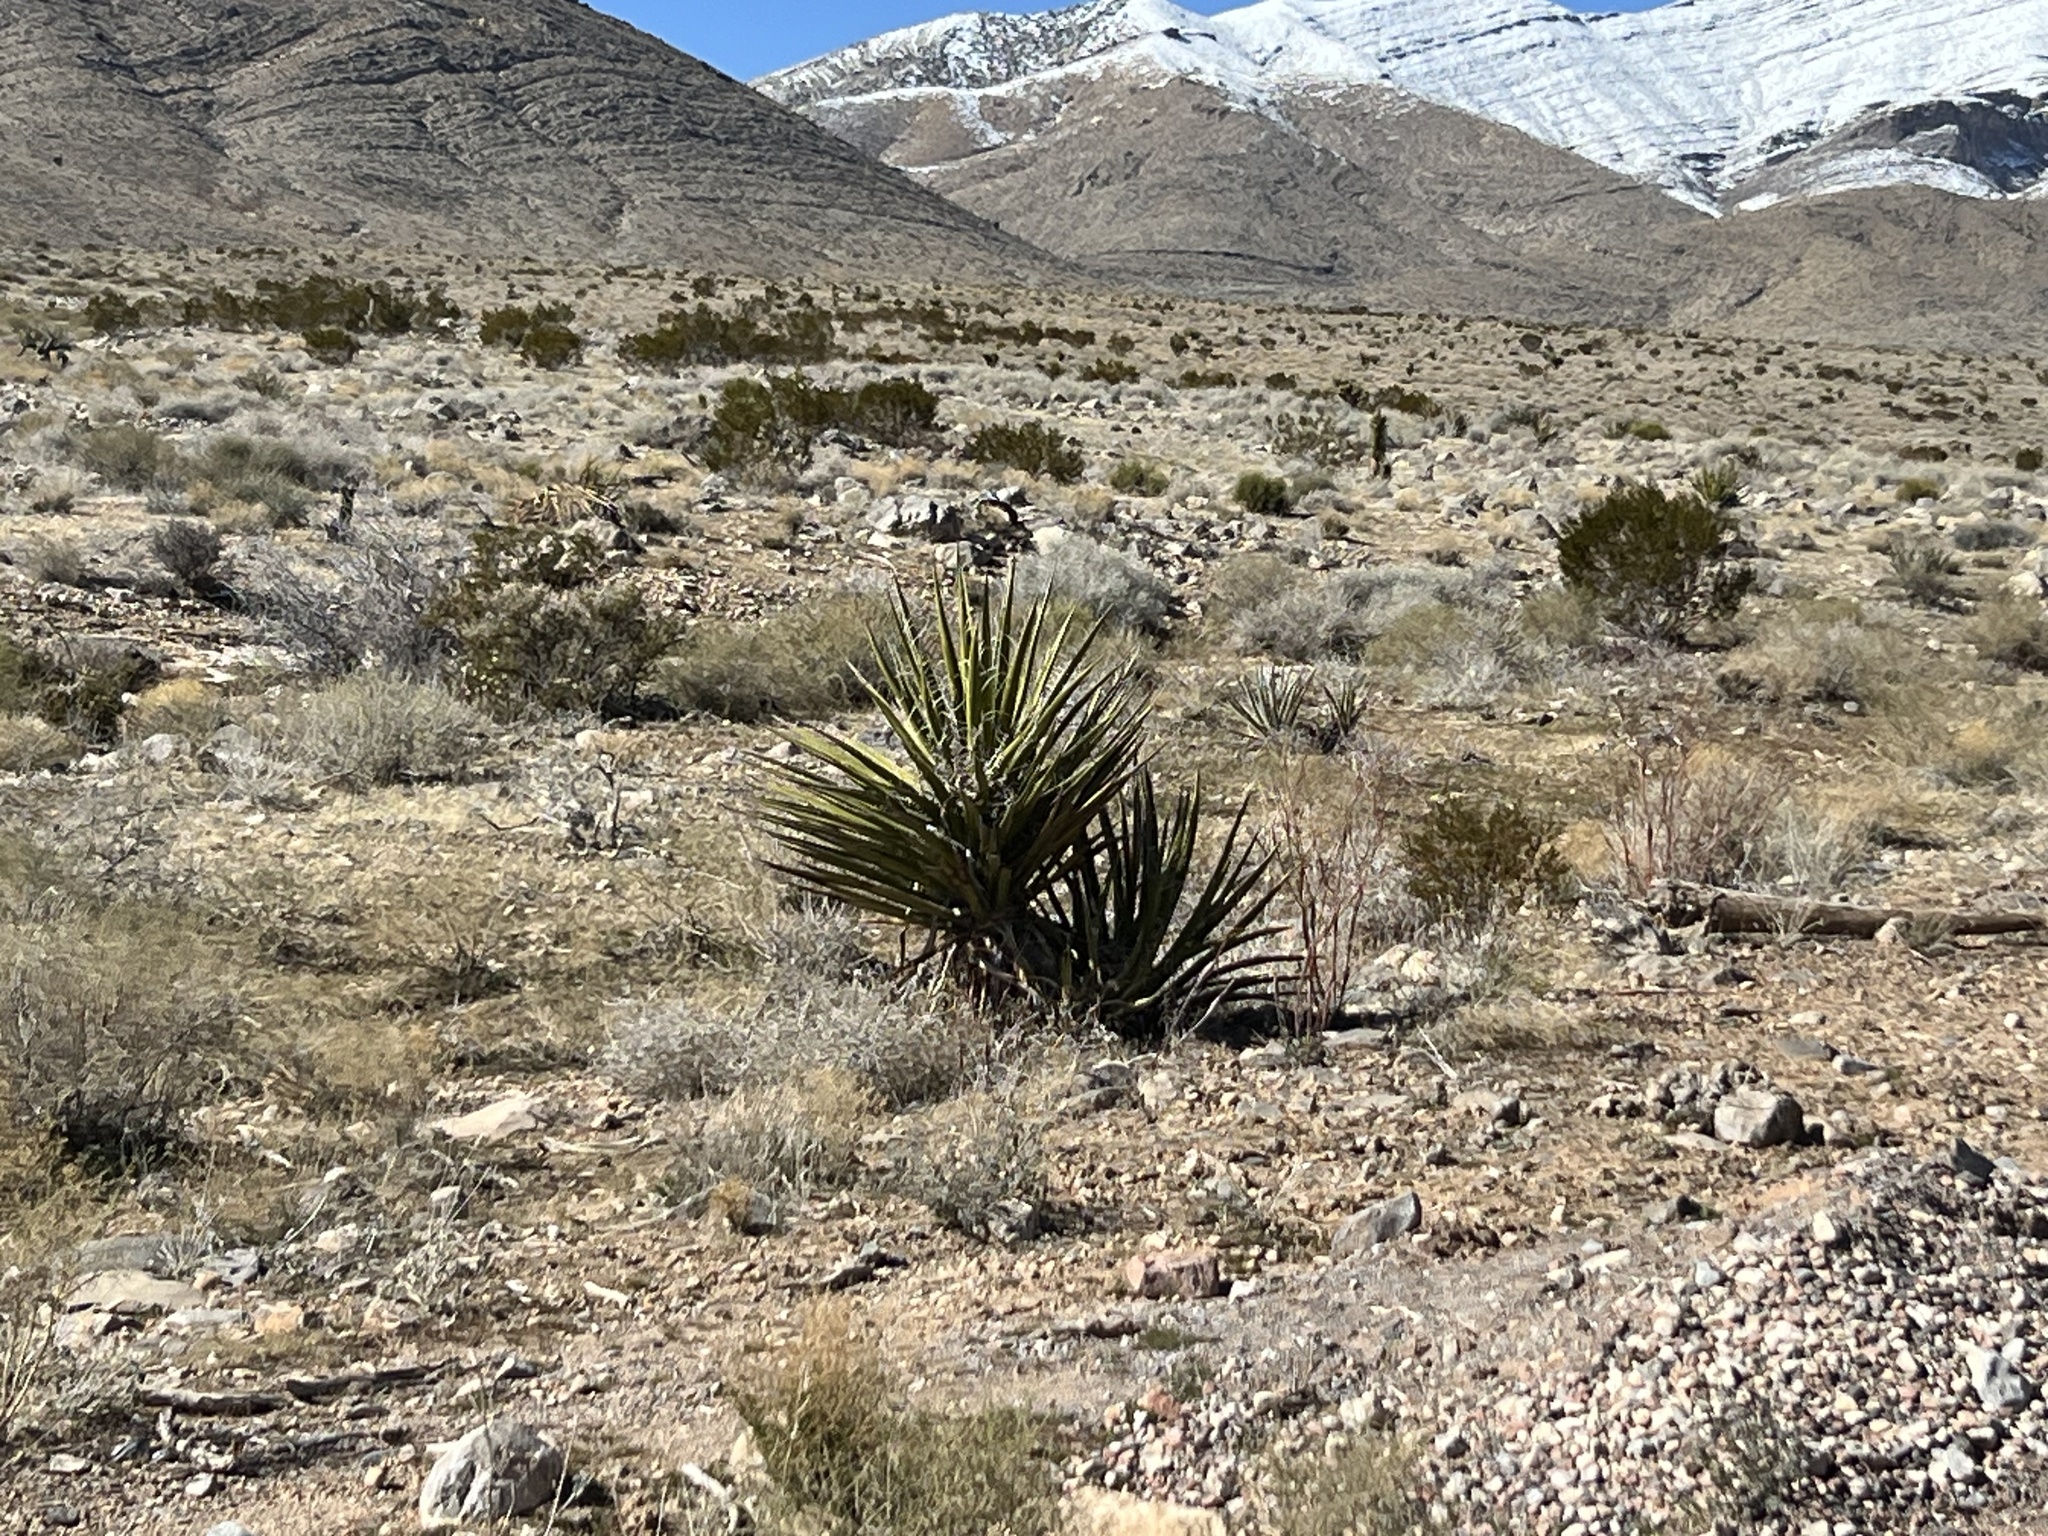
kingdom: Plantae
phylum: Tracheophyta
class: Liliopsida
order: Asparagales
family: Asparagaceae
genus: Yucca
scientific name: Yucca schidigera
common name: Mojave yucca
